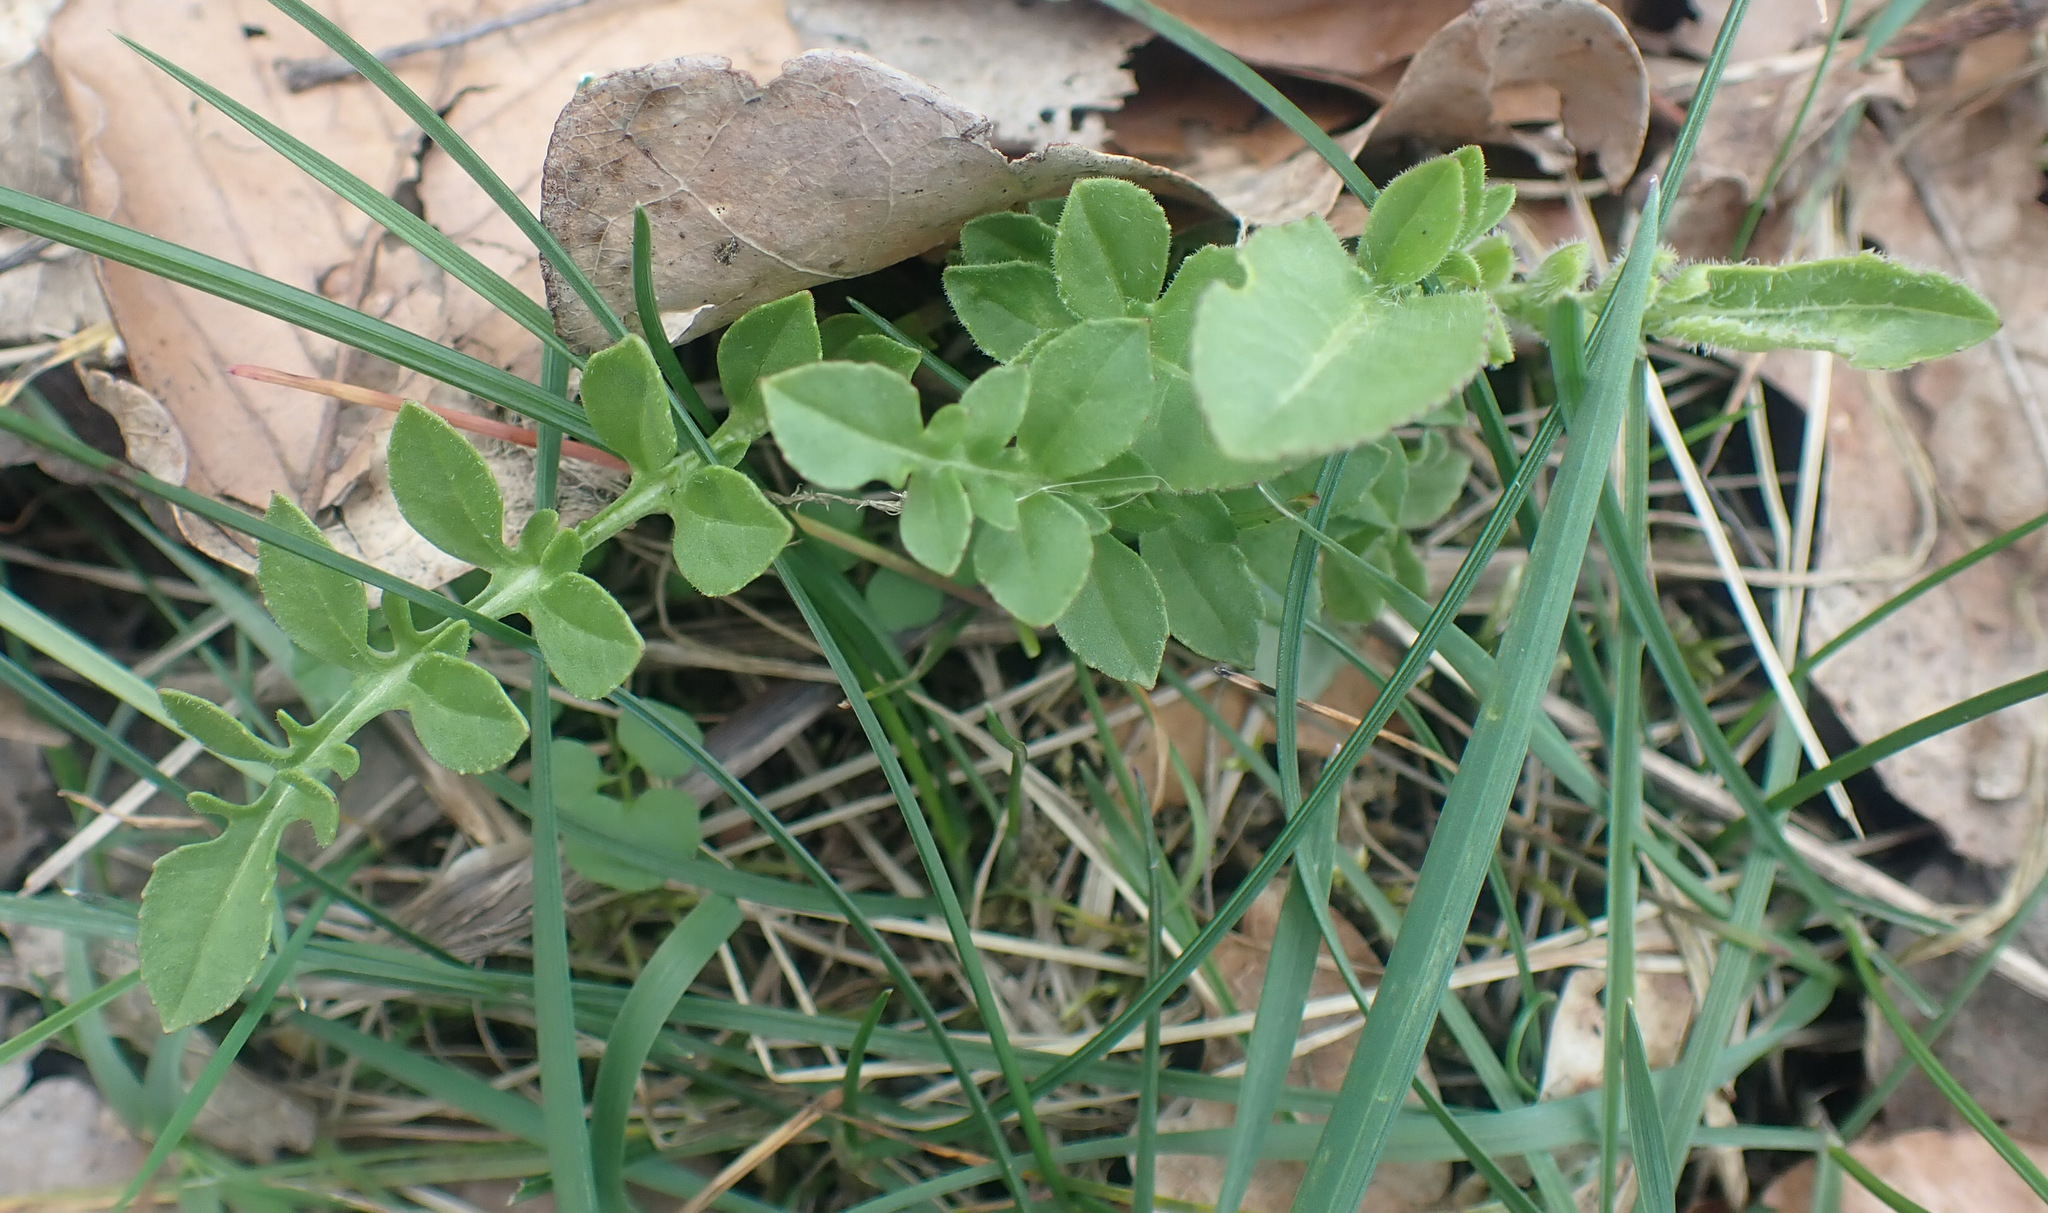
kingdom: Plantae
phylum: Tracheophyta
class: Magnoliopsida
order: Asterales
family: Asteraceae
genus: Centaurea
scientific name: Centaurea scabiosa
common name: Greater knapweed
